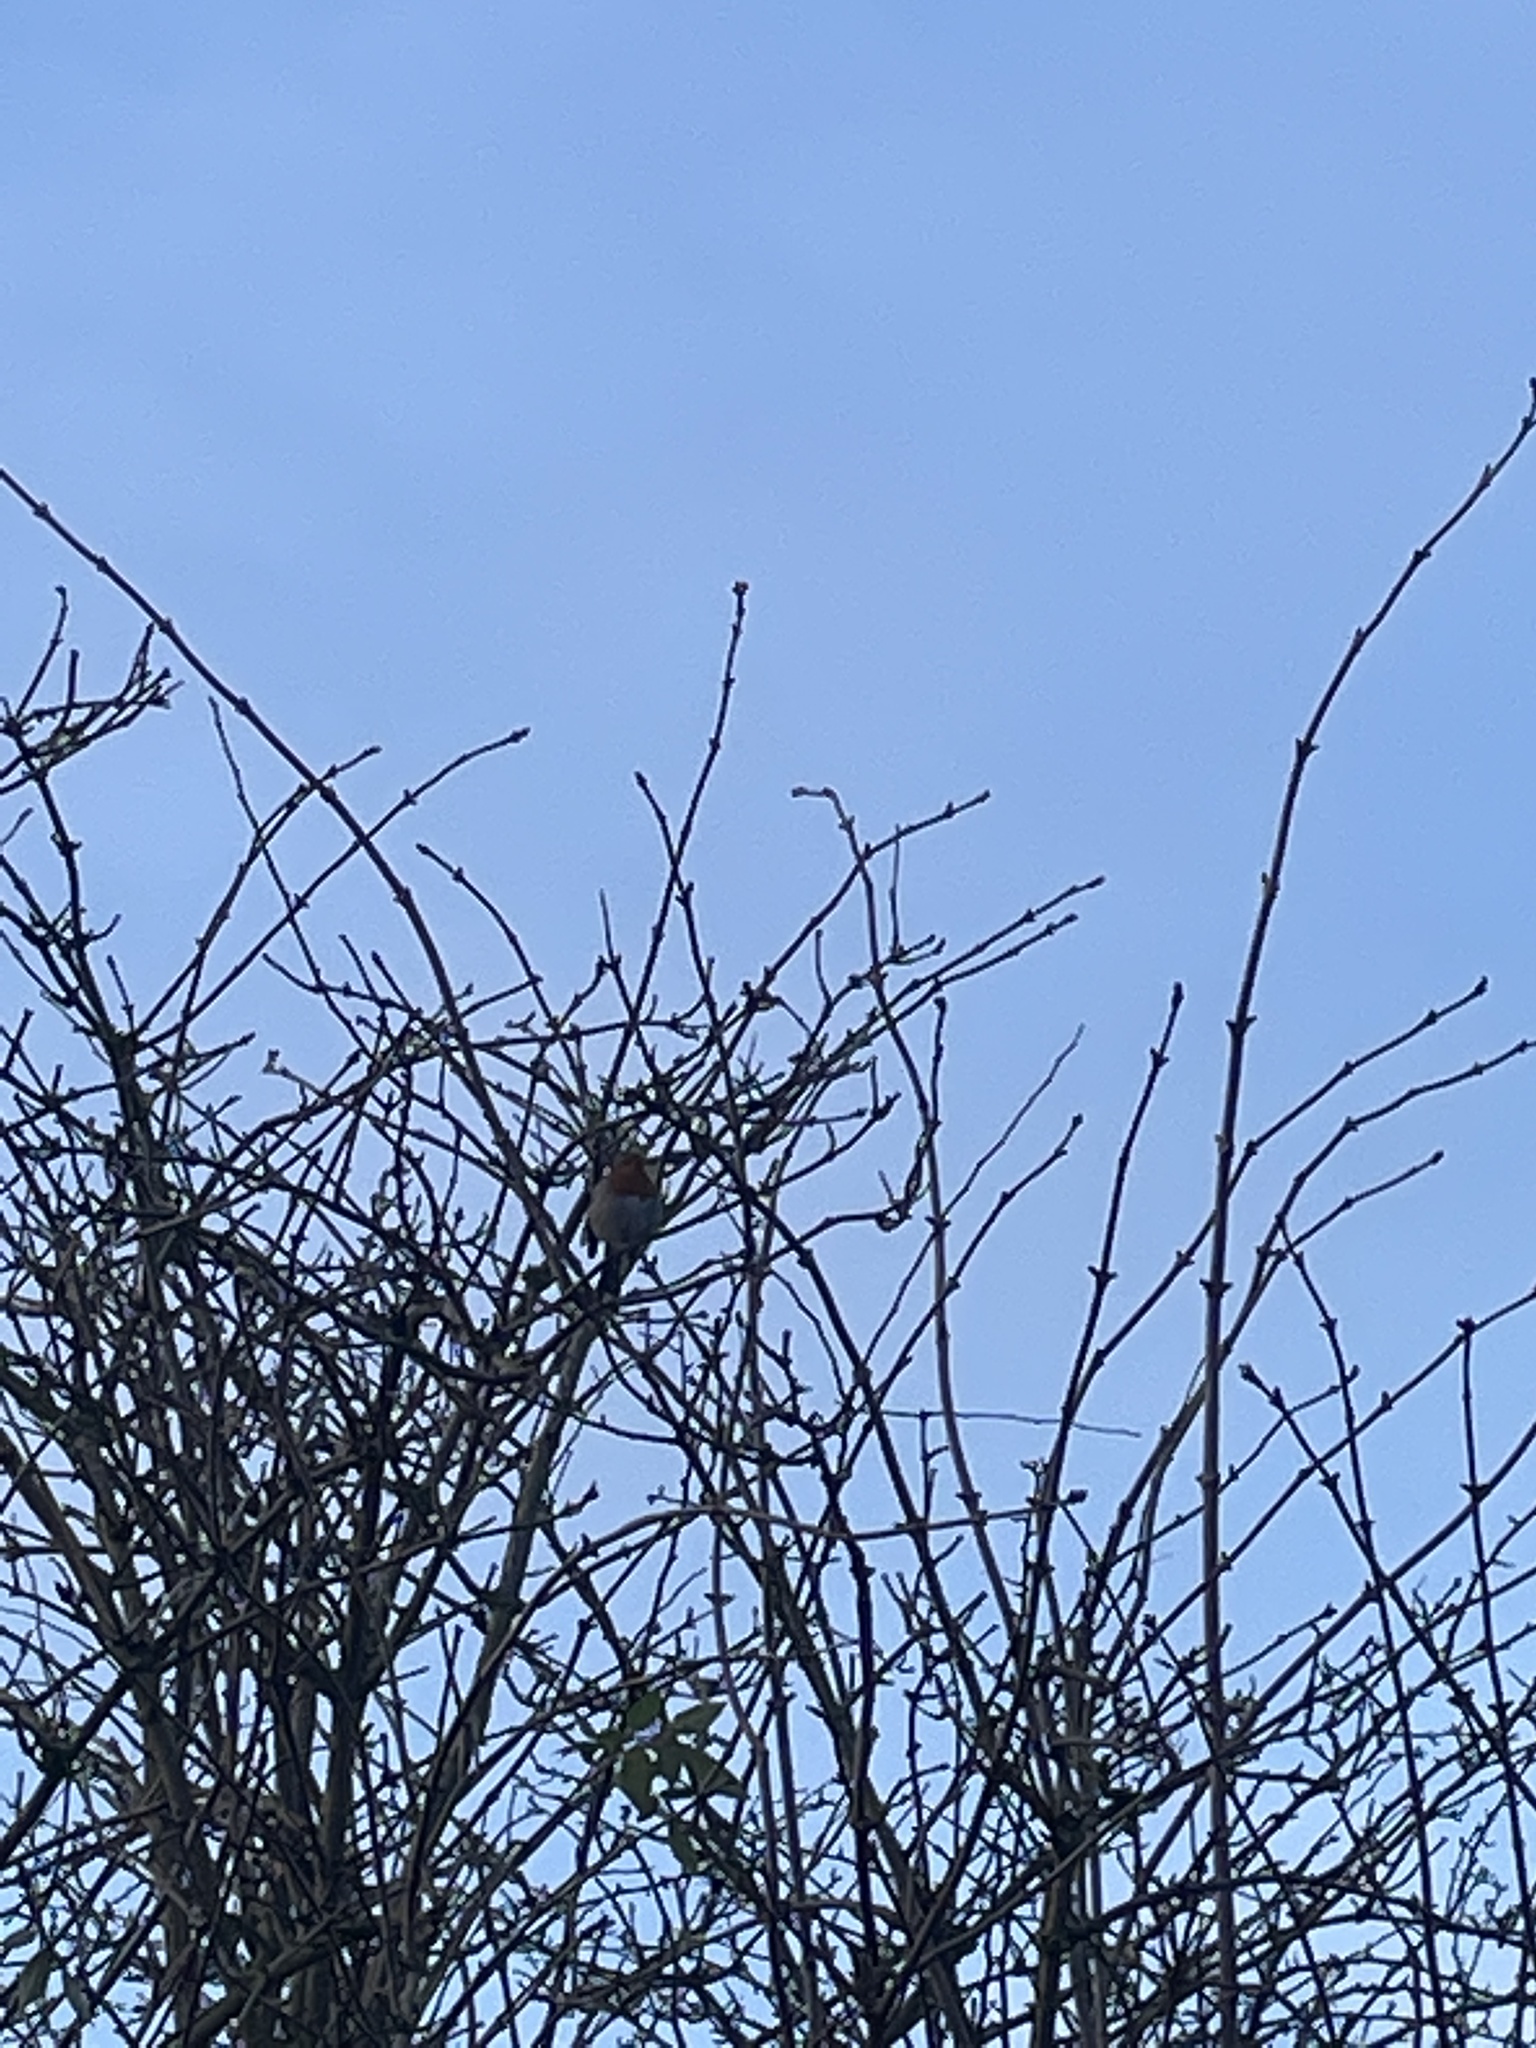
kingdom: Animalia
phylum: Chordata
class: Aves
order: Passeriformes
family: Muscicapidae
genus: Erithacus
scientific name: Erithacus rubecula
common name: European robin
